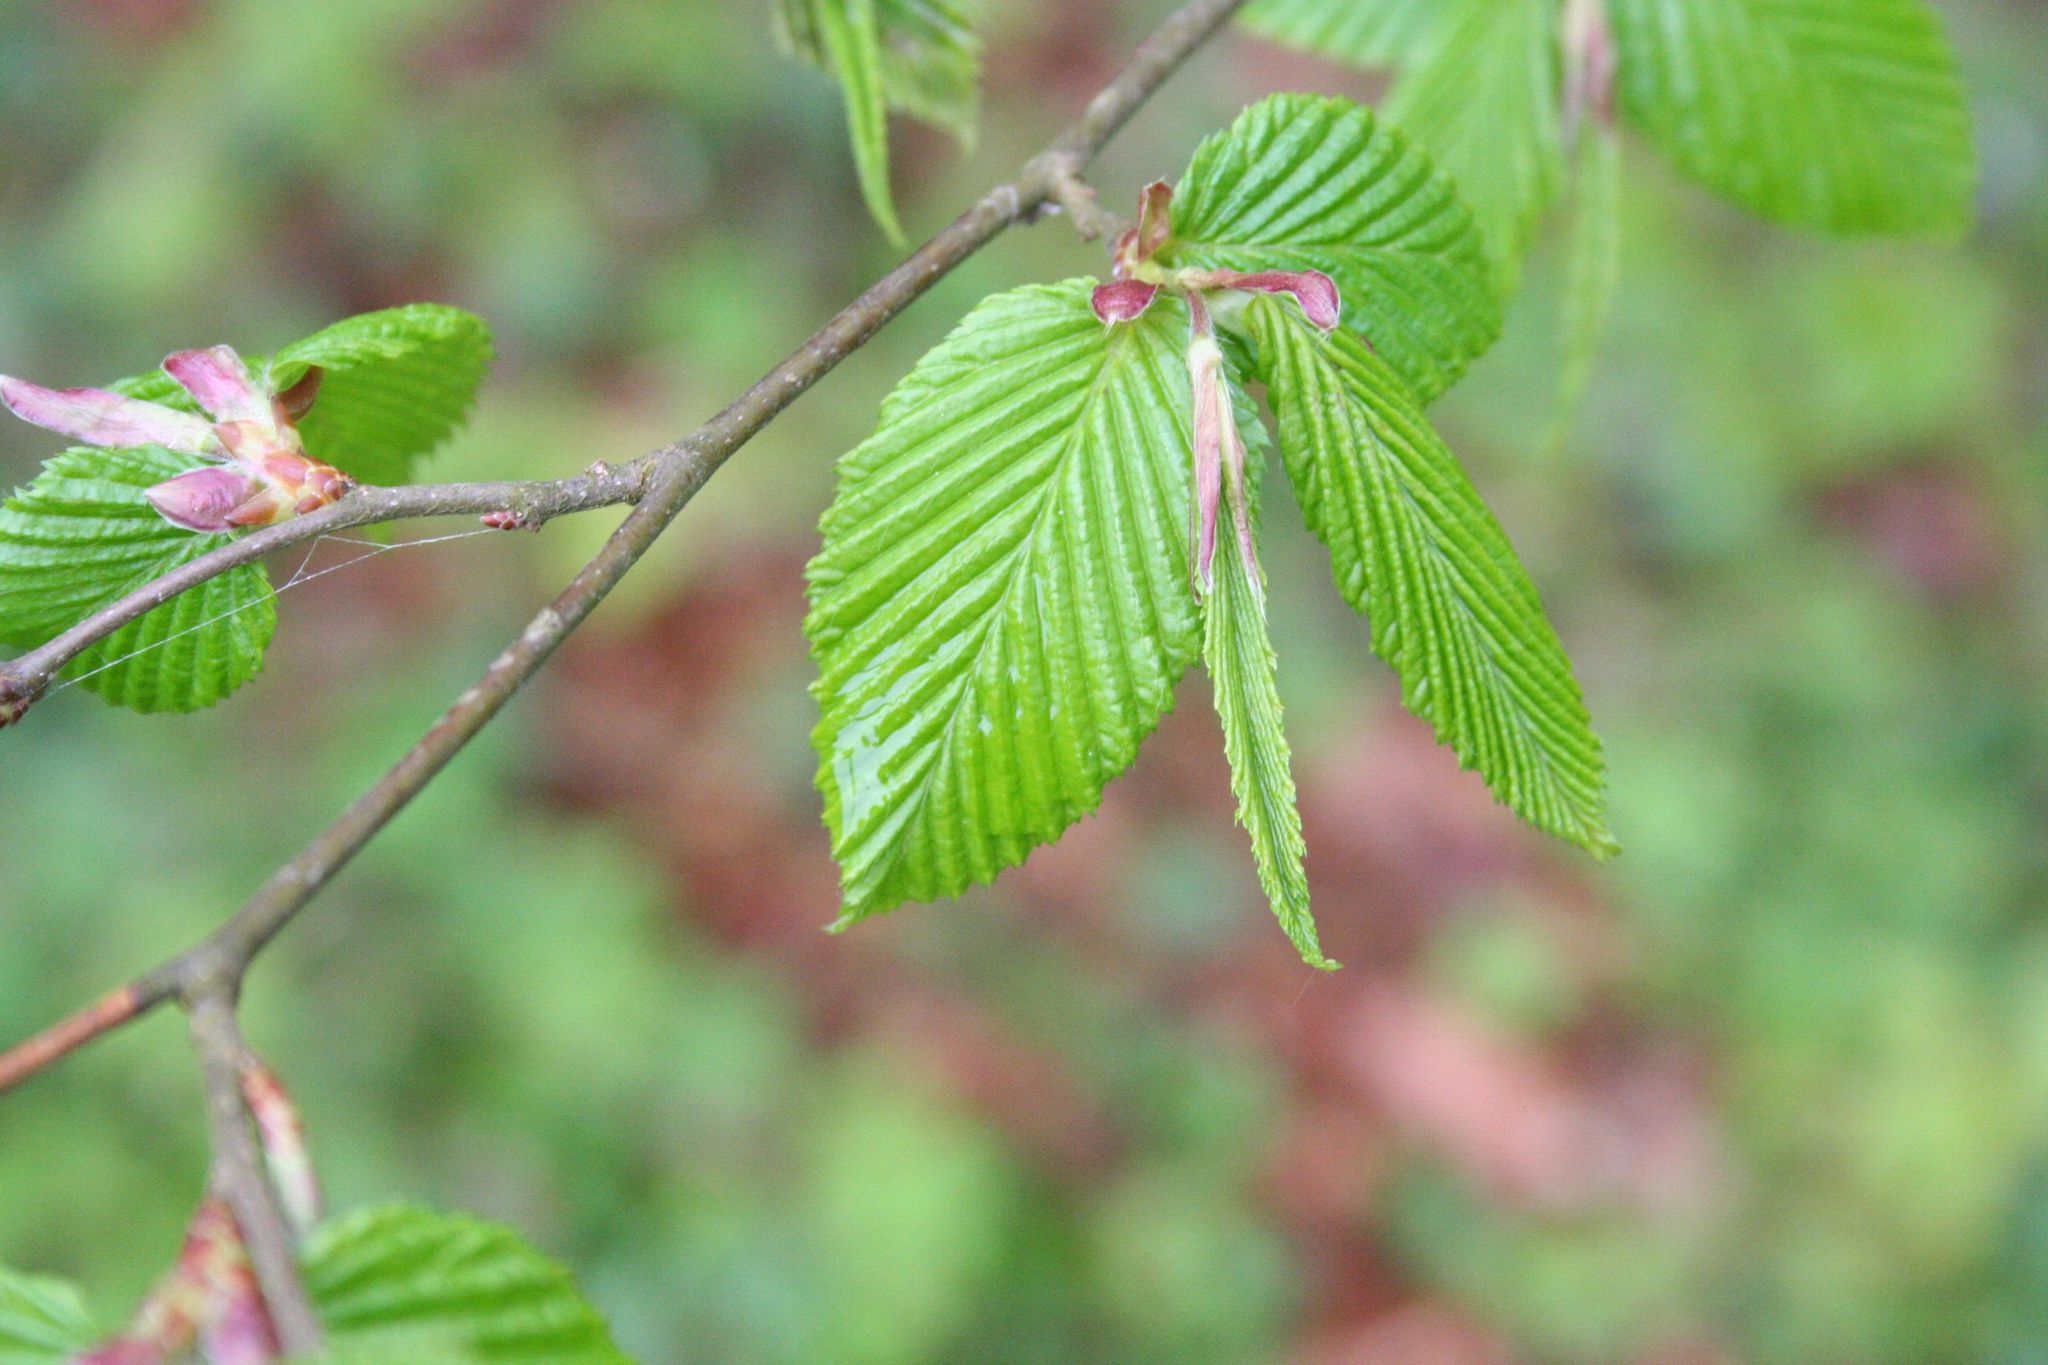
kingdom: Plantae
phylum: Tracheophyta
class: Magnoliopsida
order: Fagales
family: Fagaceae
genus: Fagus
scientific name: Fagus sylvatica
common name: Beech
